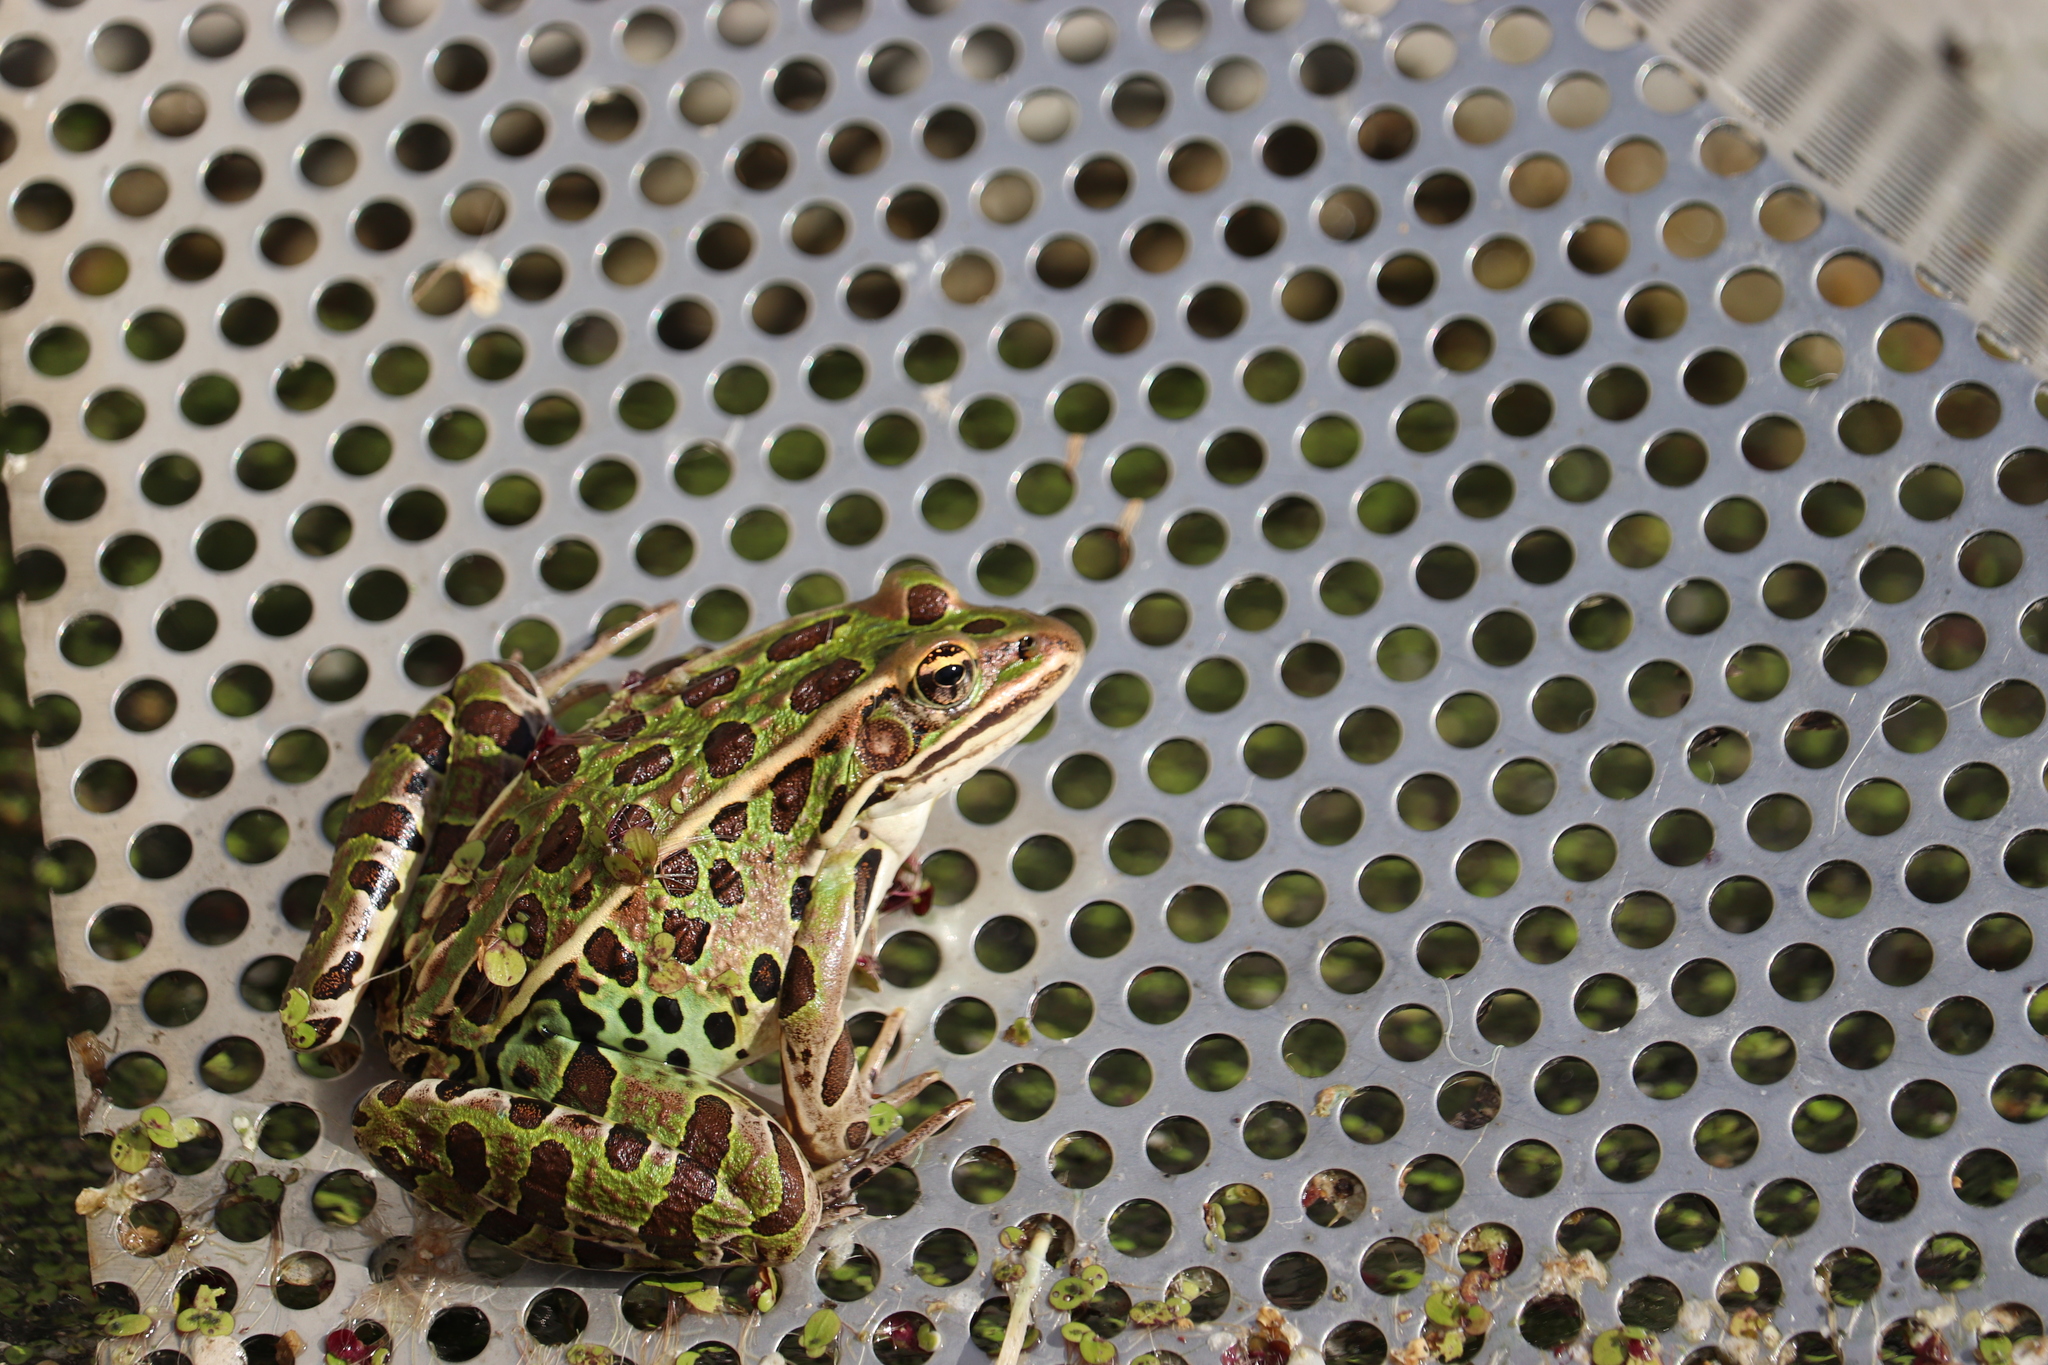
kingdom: Animalia
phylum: Chordata
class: Amphibia
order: Anura
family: Ranidae
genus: Lithobates
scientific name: Lithobates pipiens
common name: Northern leopard frog
